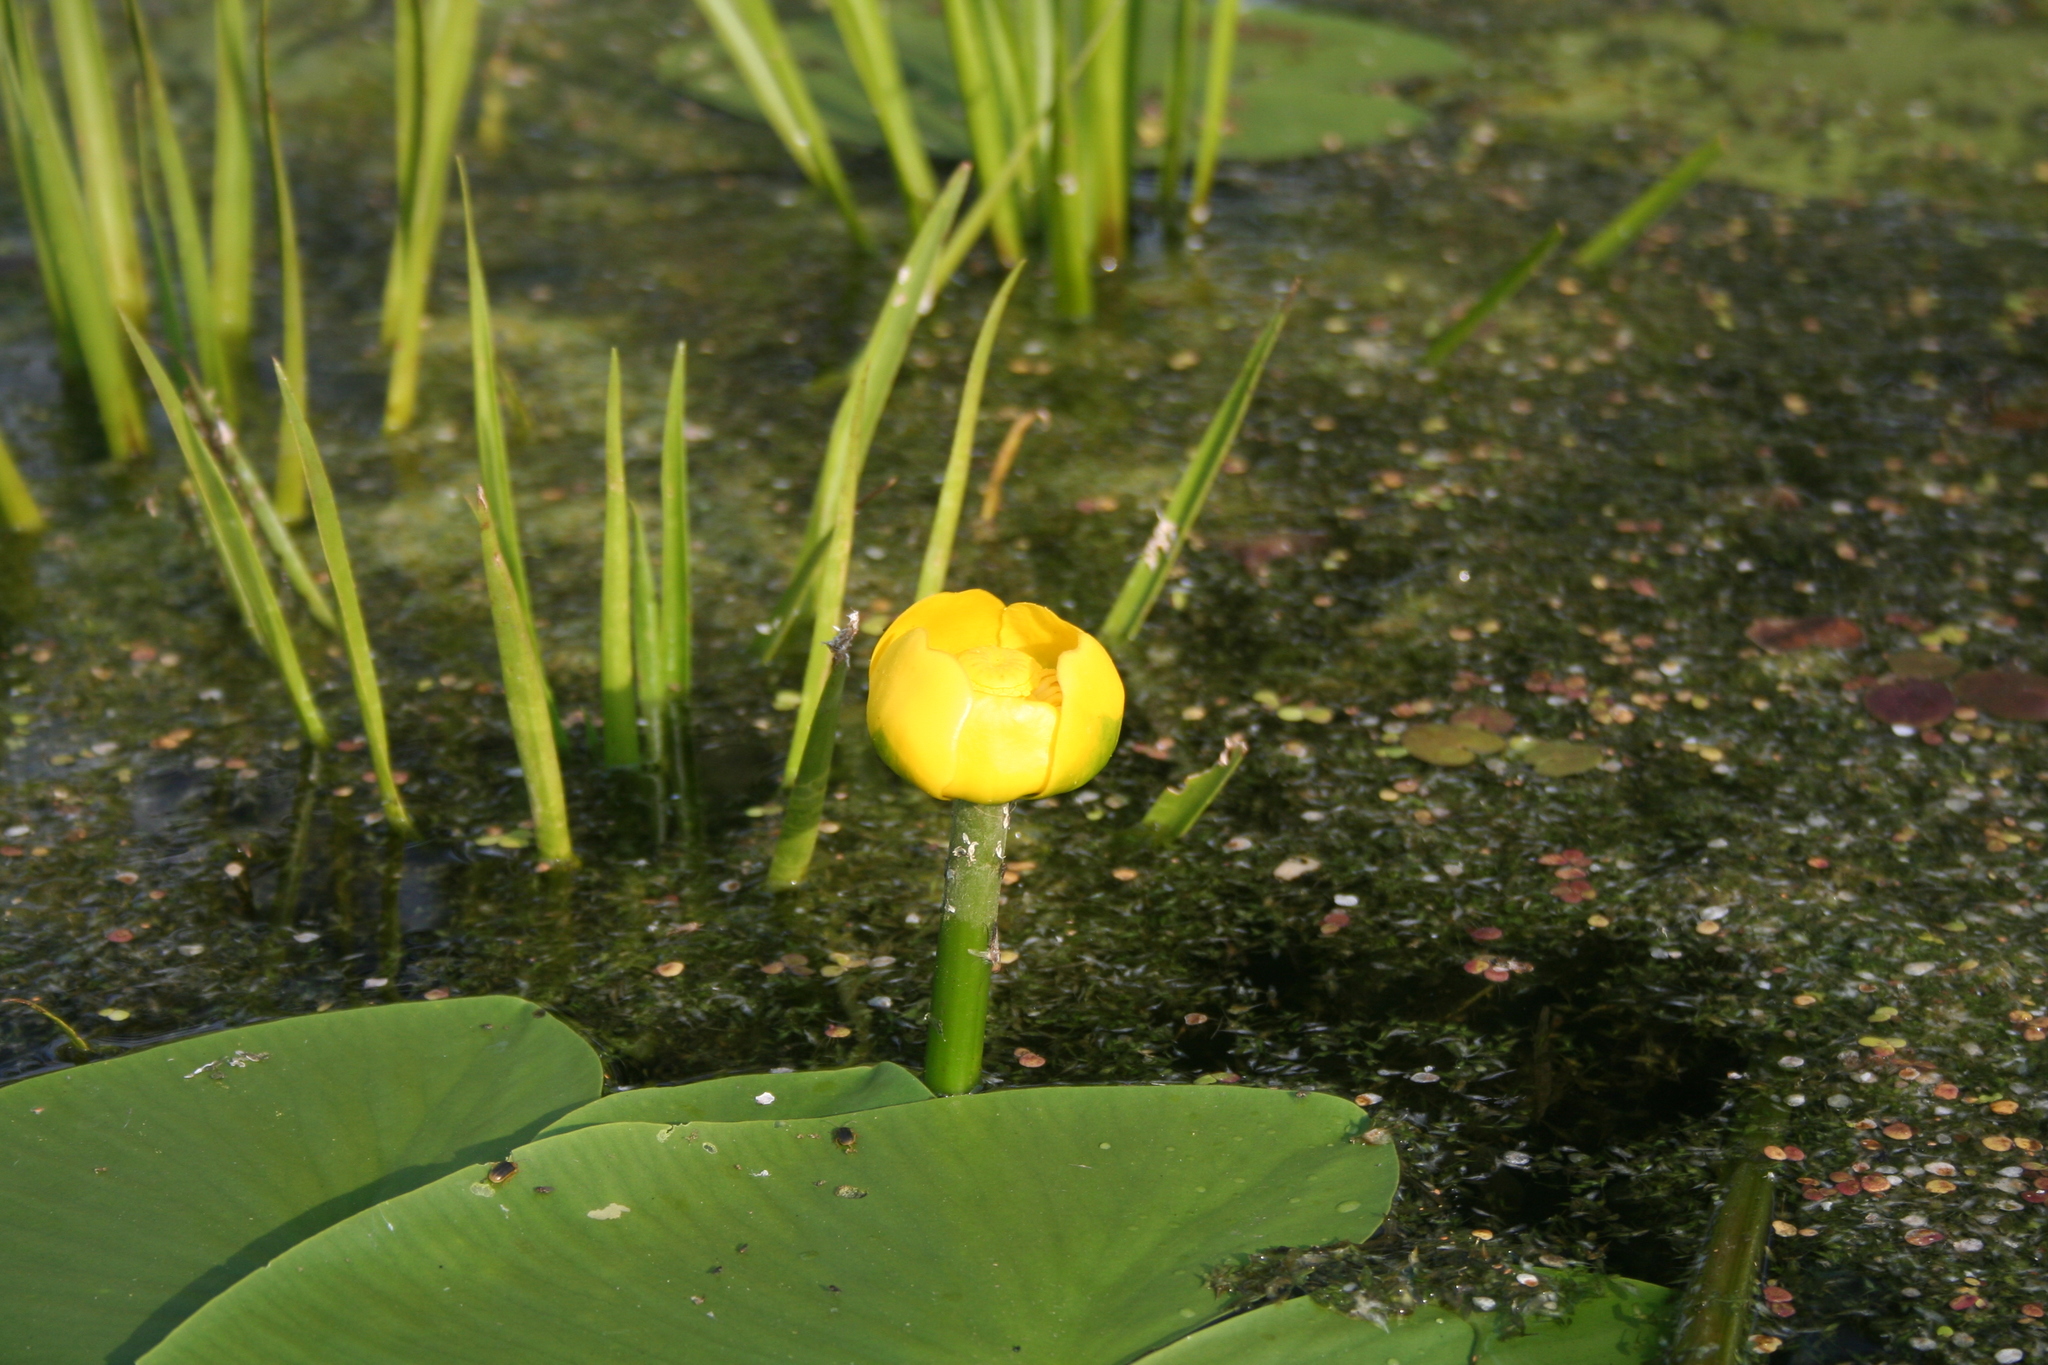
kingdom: Plantae
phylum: Tracheophyta
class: Magnoliopsida
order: Nymphaeales
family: Nymphaeaceae
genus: Nuphar
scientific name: Nuphar lutea
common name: Yellow water-lily
